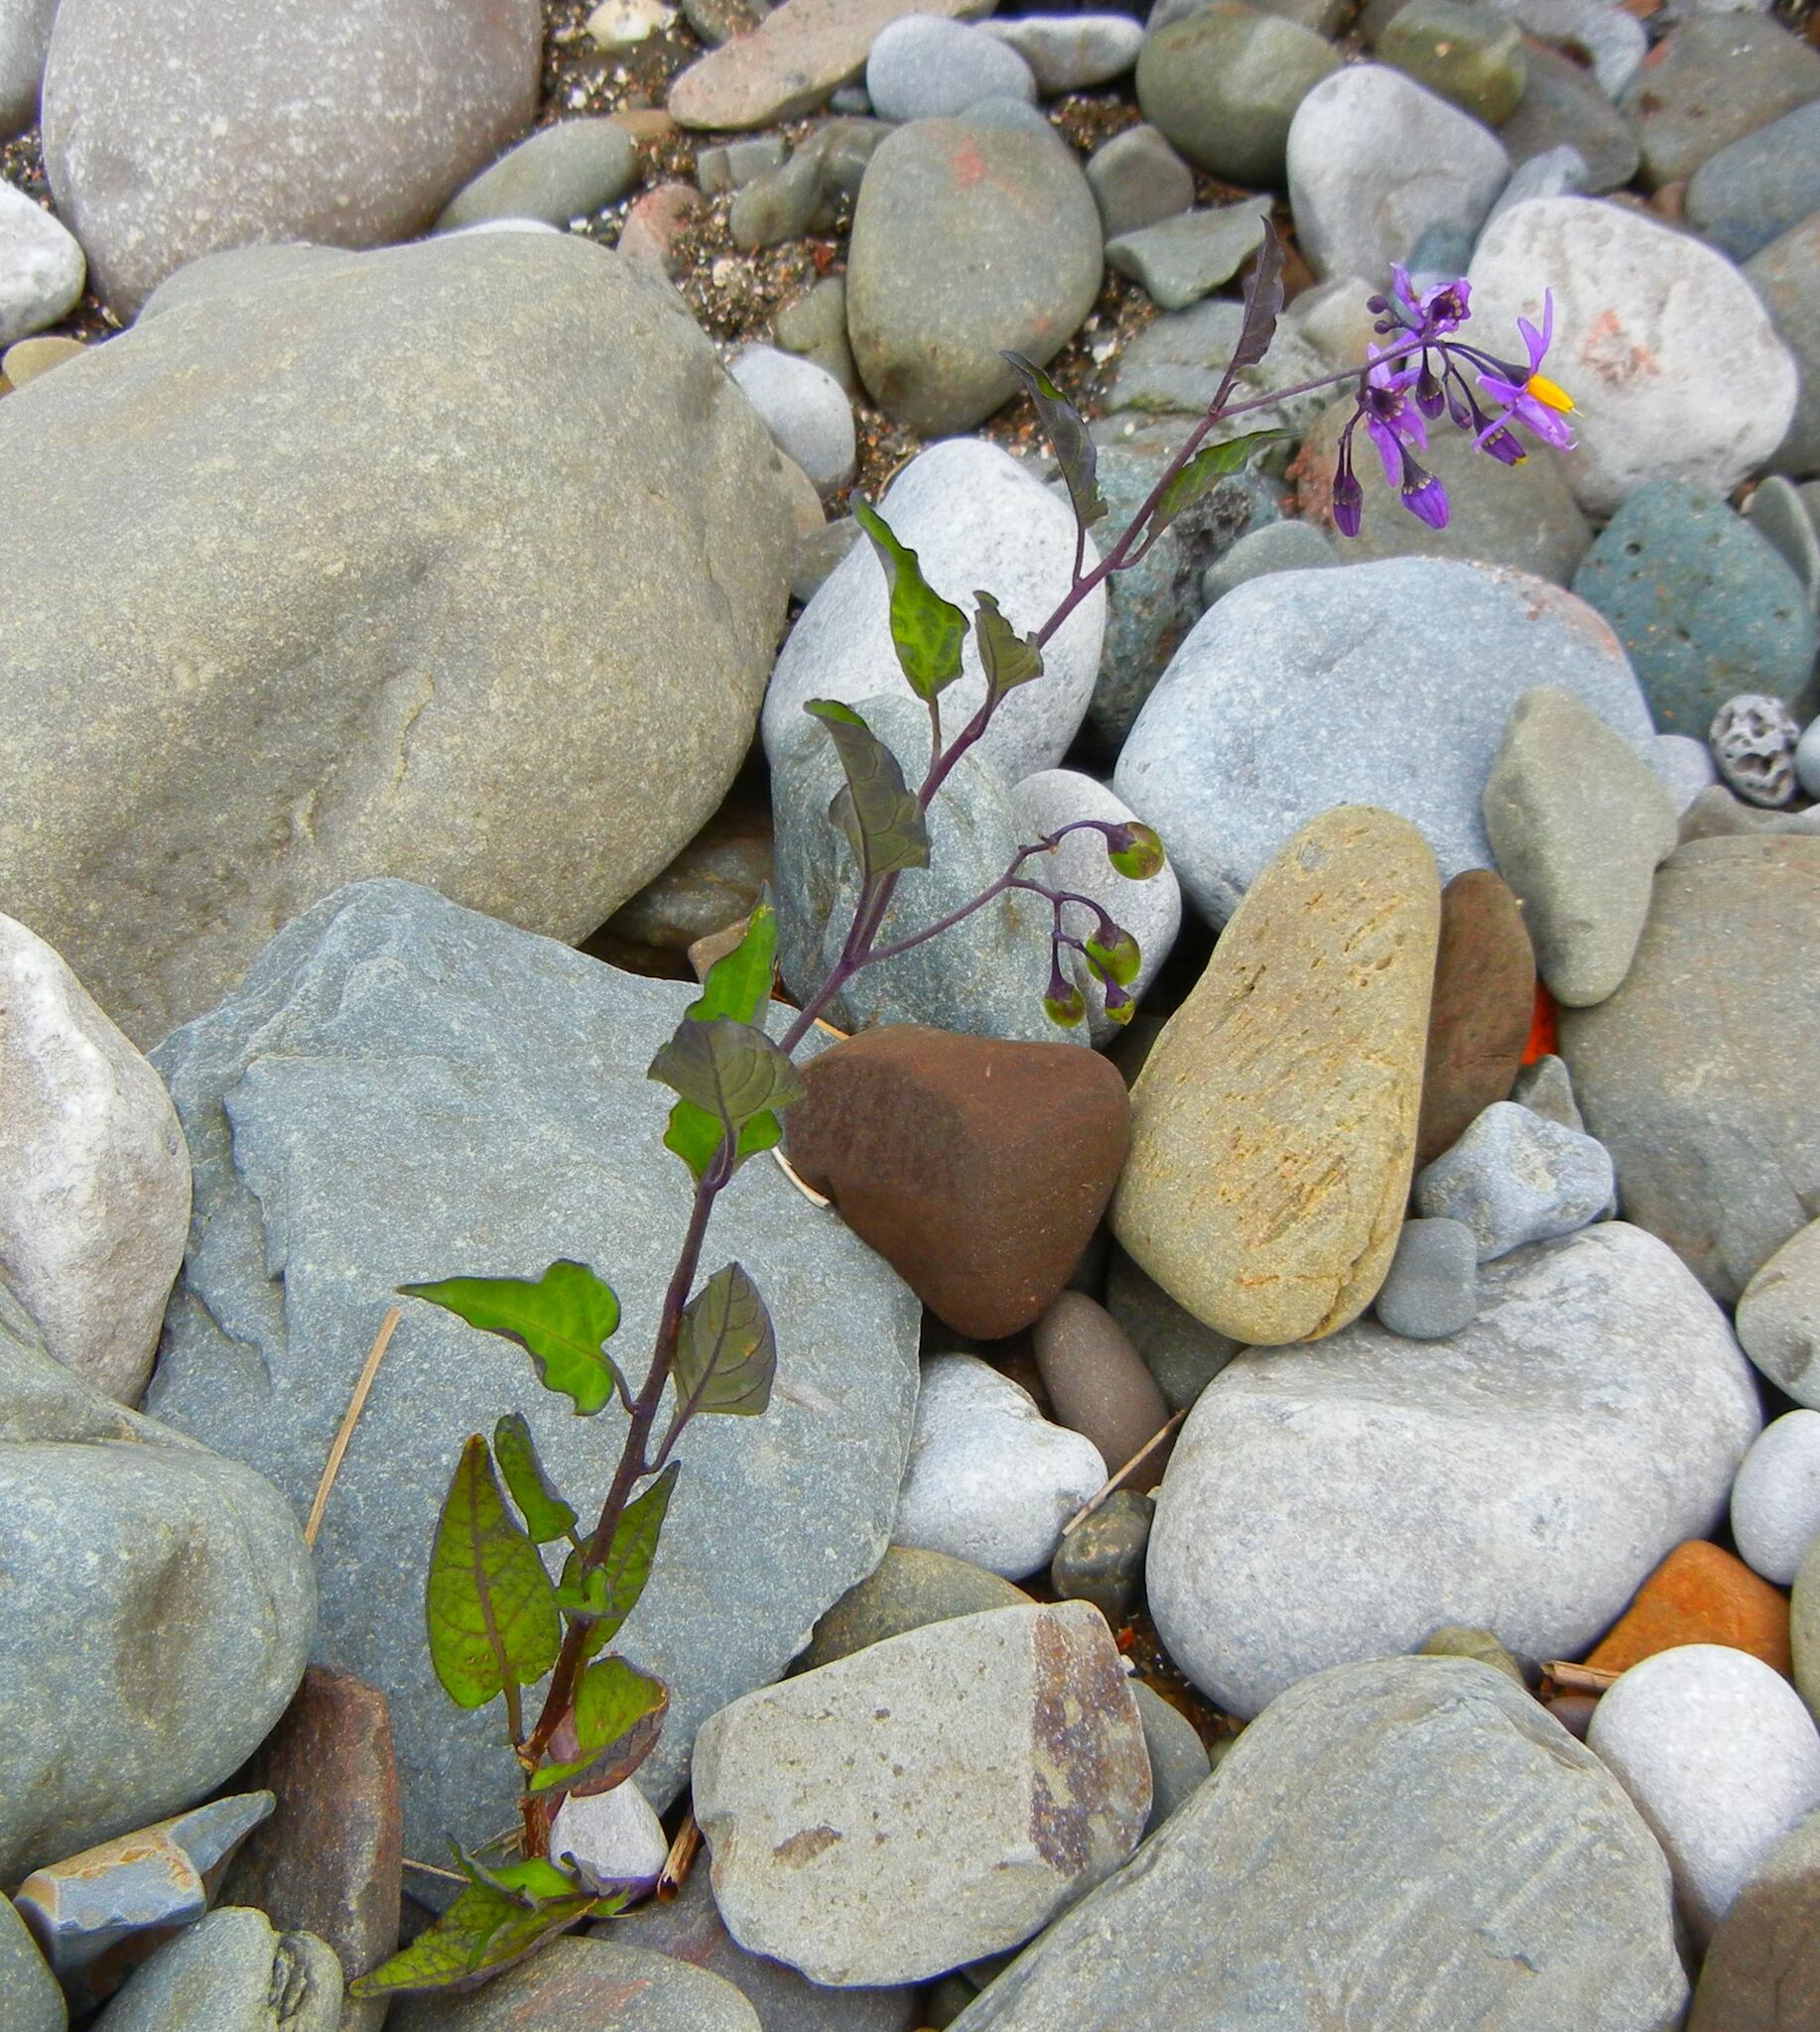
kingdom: Plantae
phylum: Tracheophyta
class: Magnoliopsida
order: Solanales
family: Solanaceae
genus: Solanum
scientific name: Solanum dulcamara
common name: Climbing nightshade
